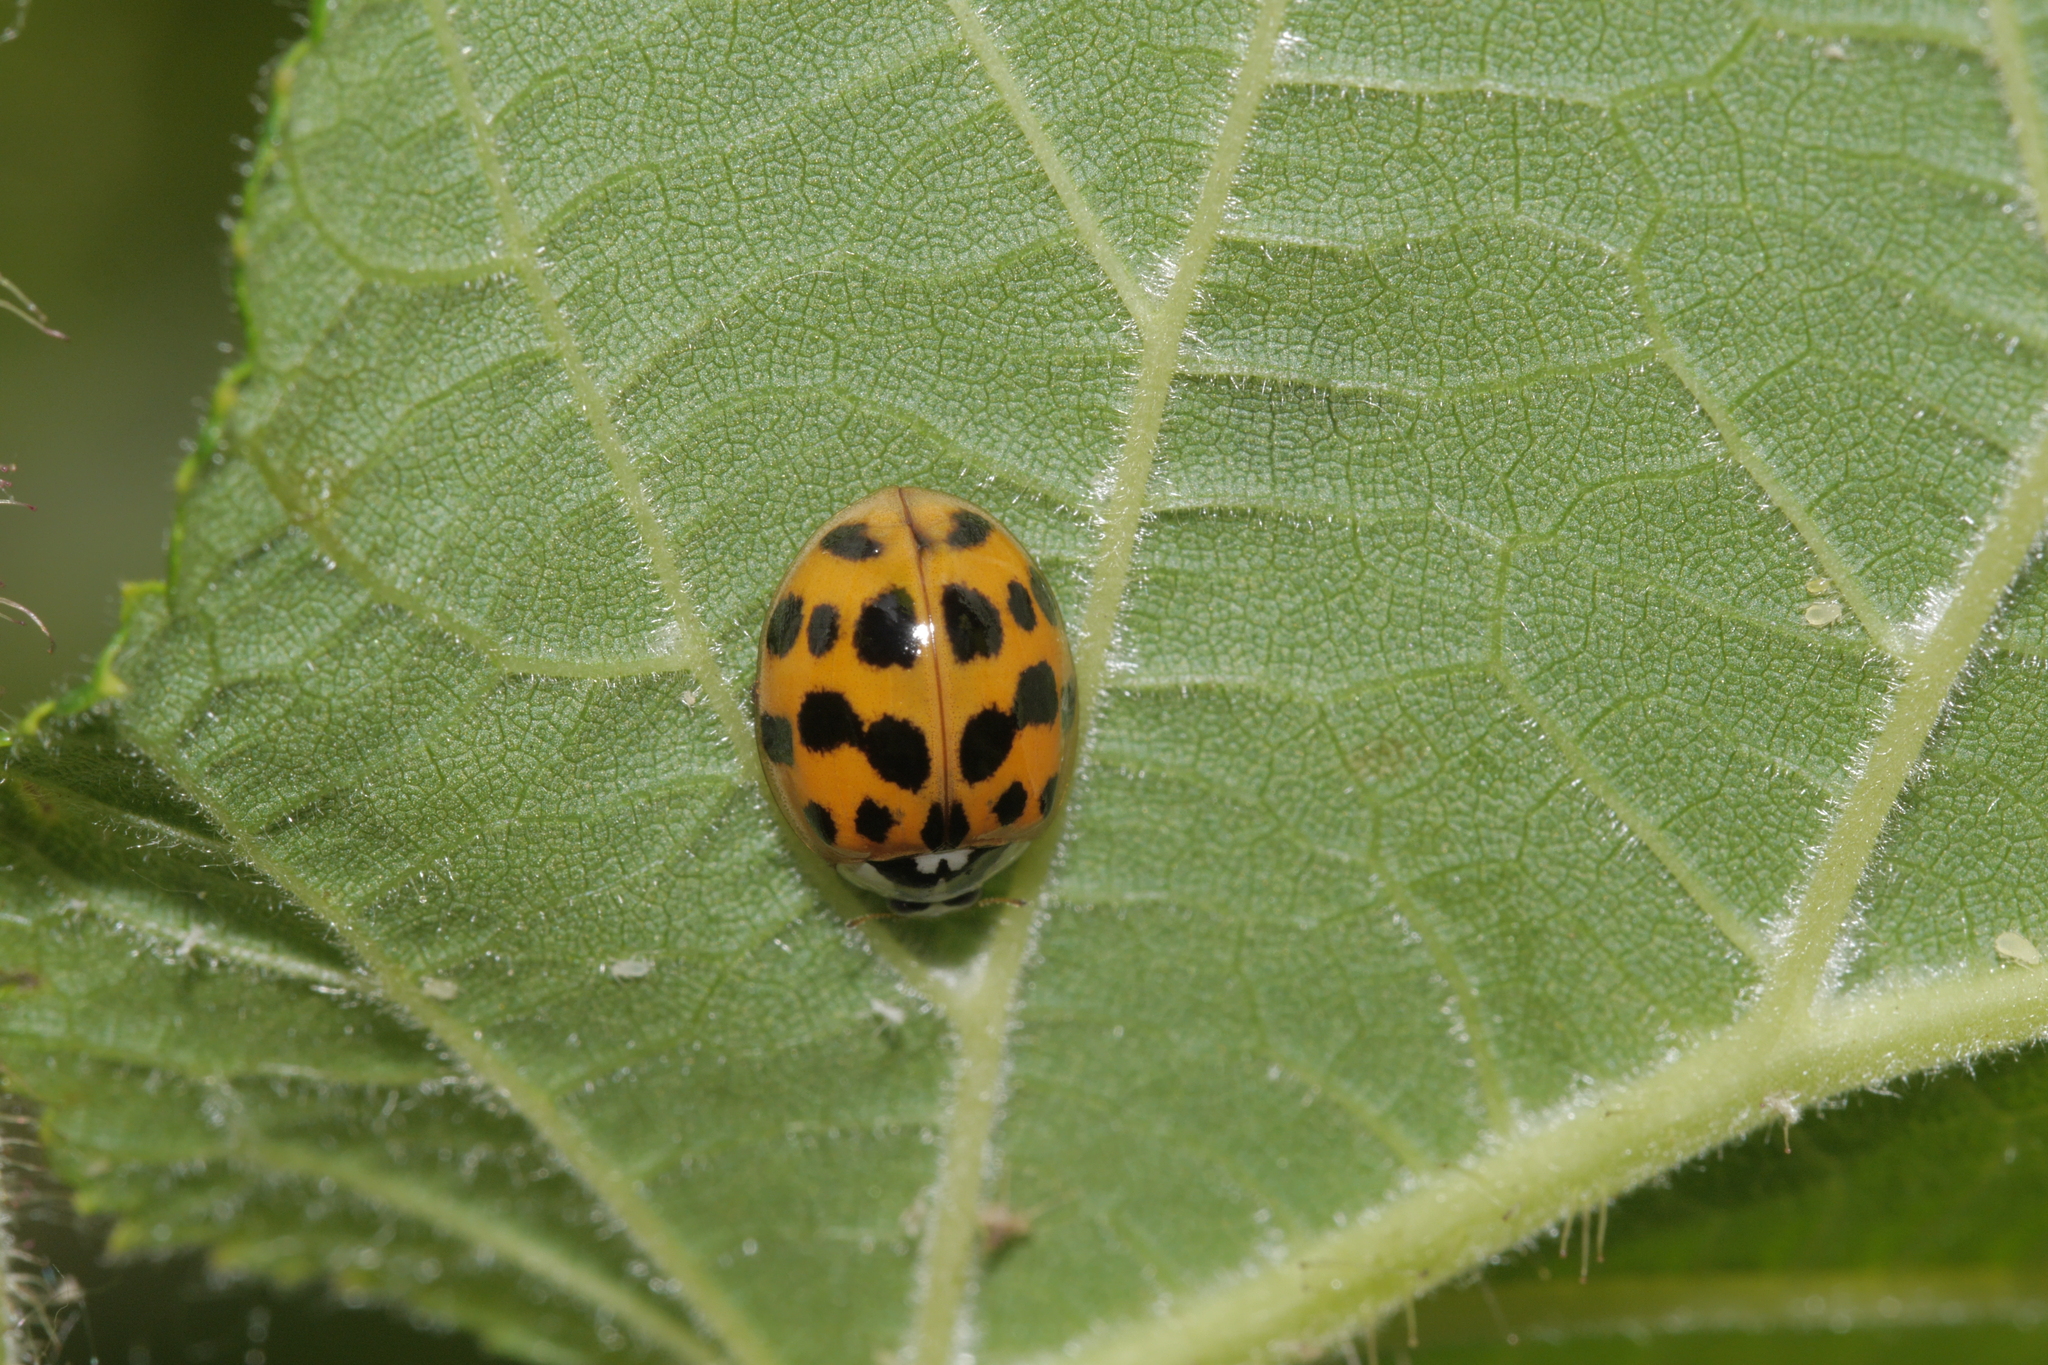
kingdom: Animalia
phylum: Arthropoda
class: Insecta
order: Coleoptera
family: Coccinellidae
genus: Harmonia
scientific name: Harmonia axyridis
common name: Harlequin ladybird
